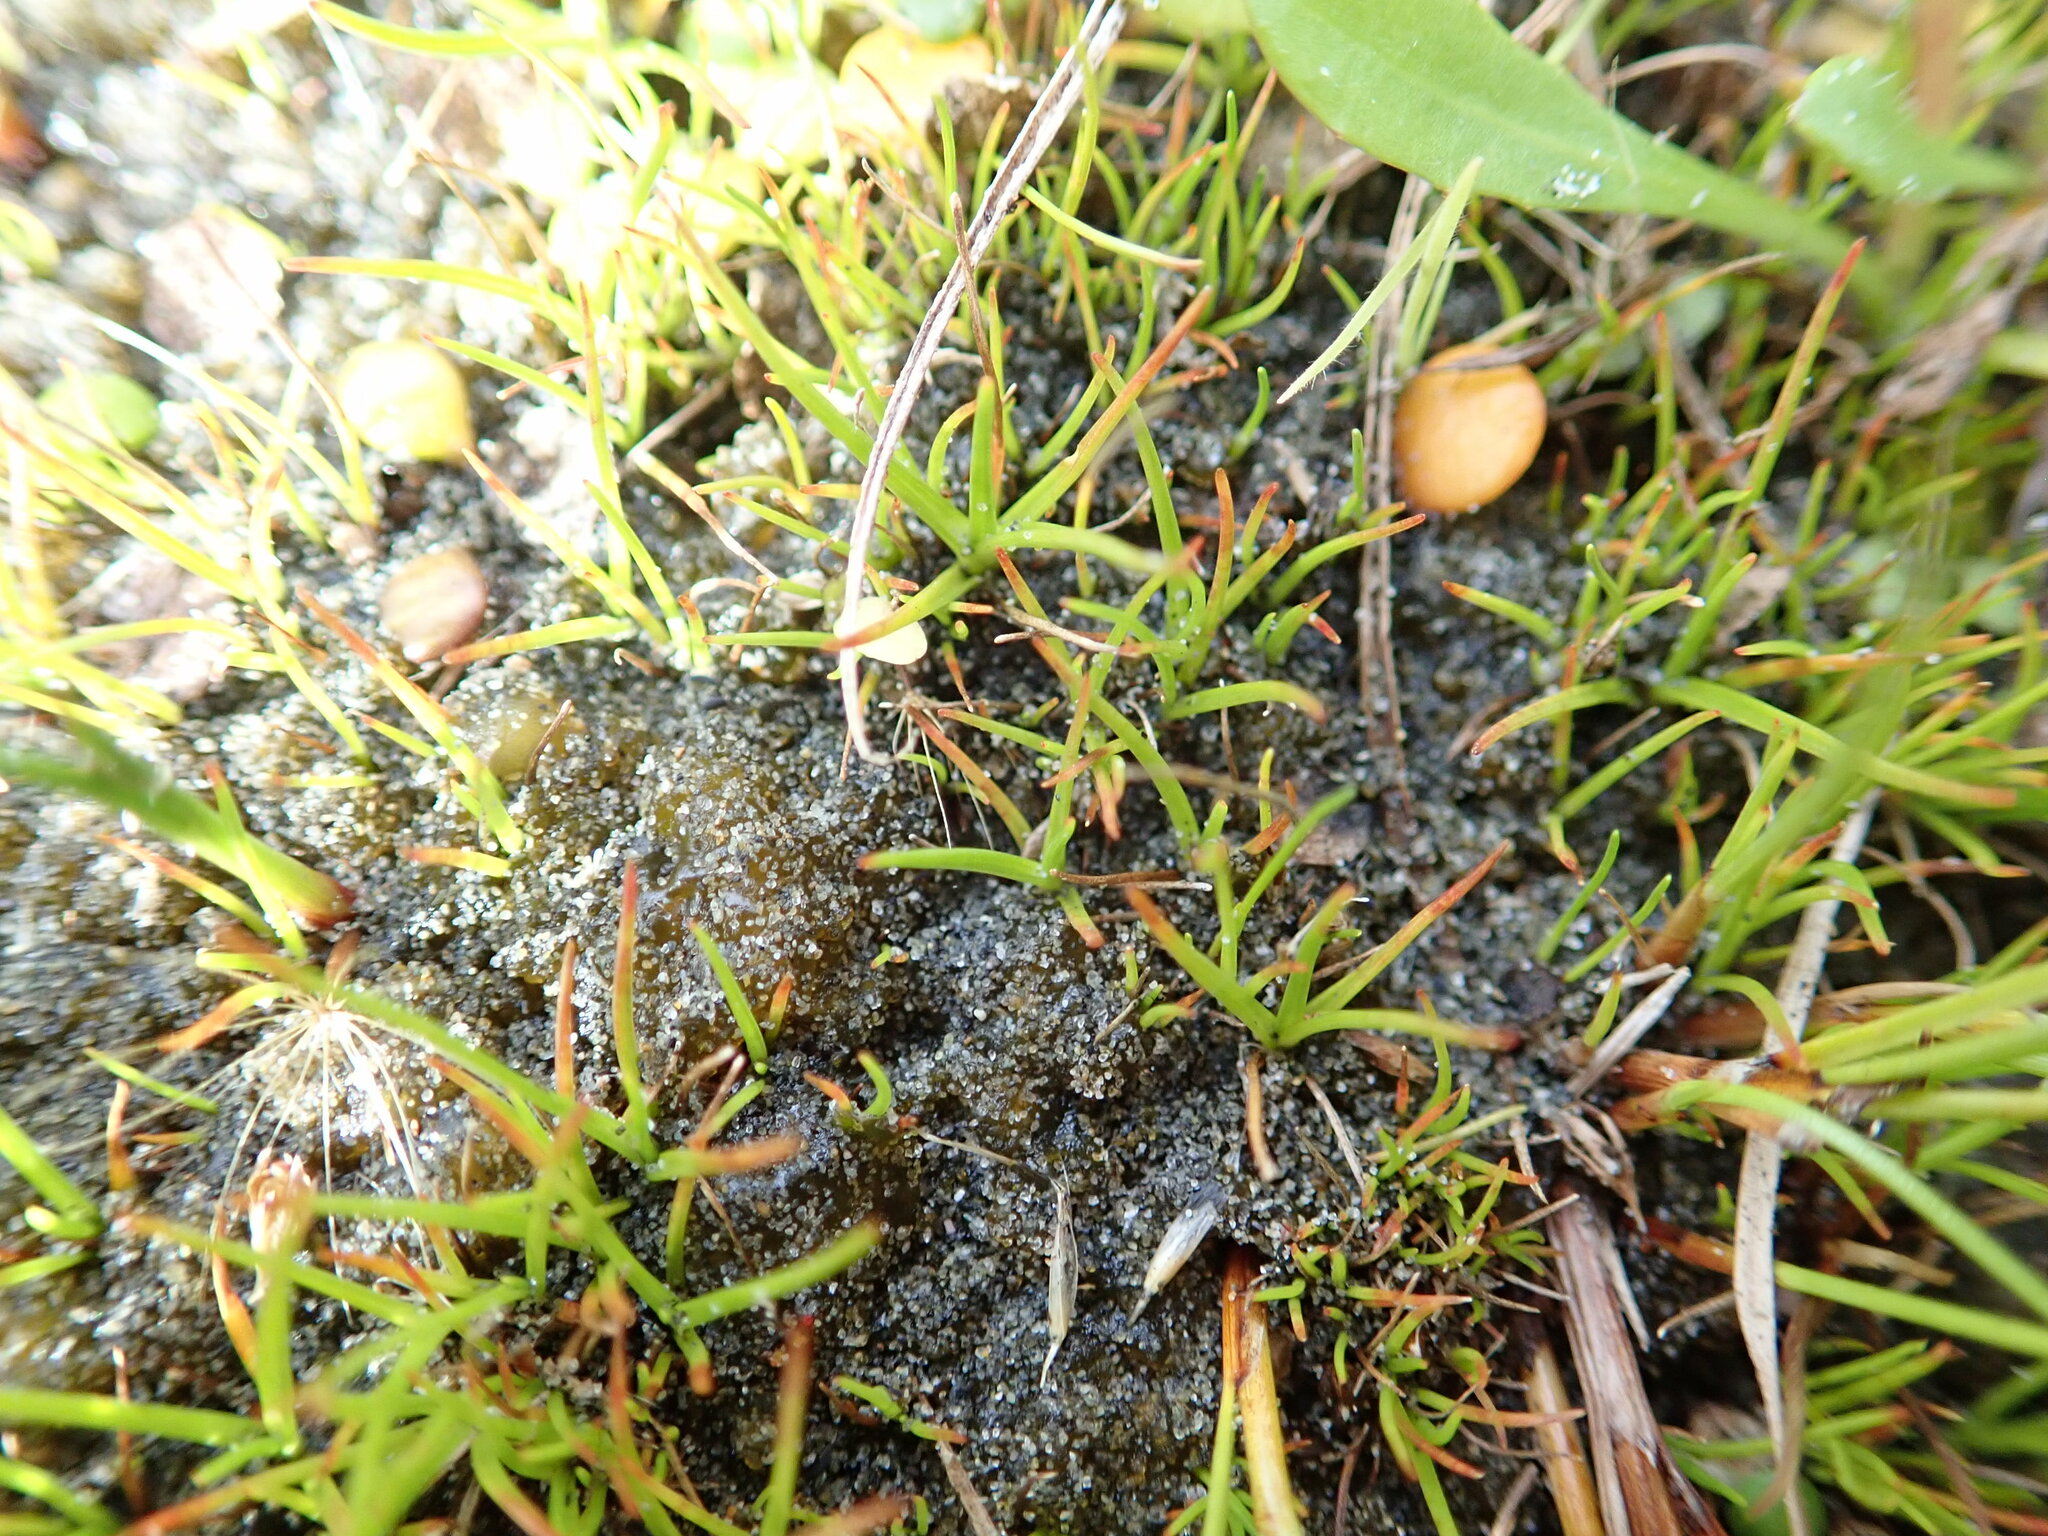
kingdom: Plantae
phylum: Tracheophyta
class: Liliopsida
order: Poales
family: Juncaceae
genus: Juncus
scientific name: Juncus caespiticius
